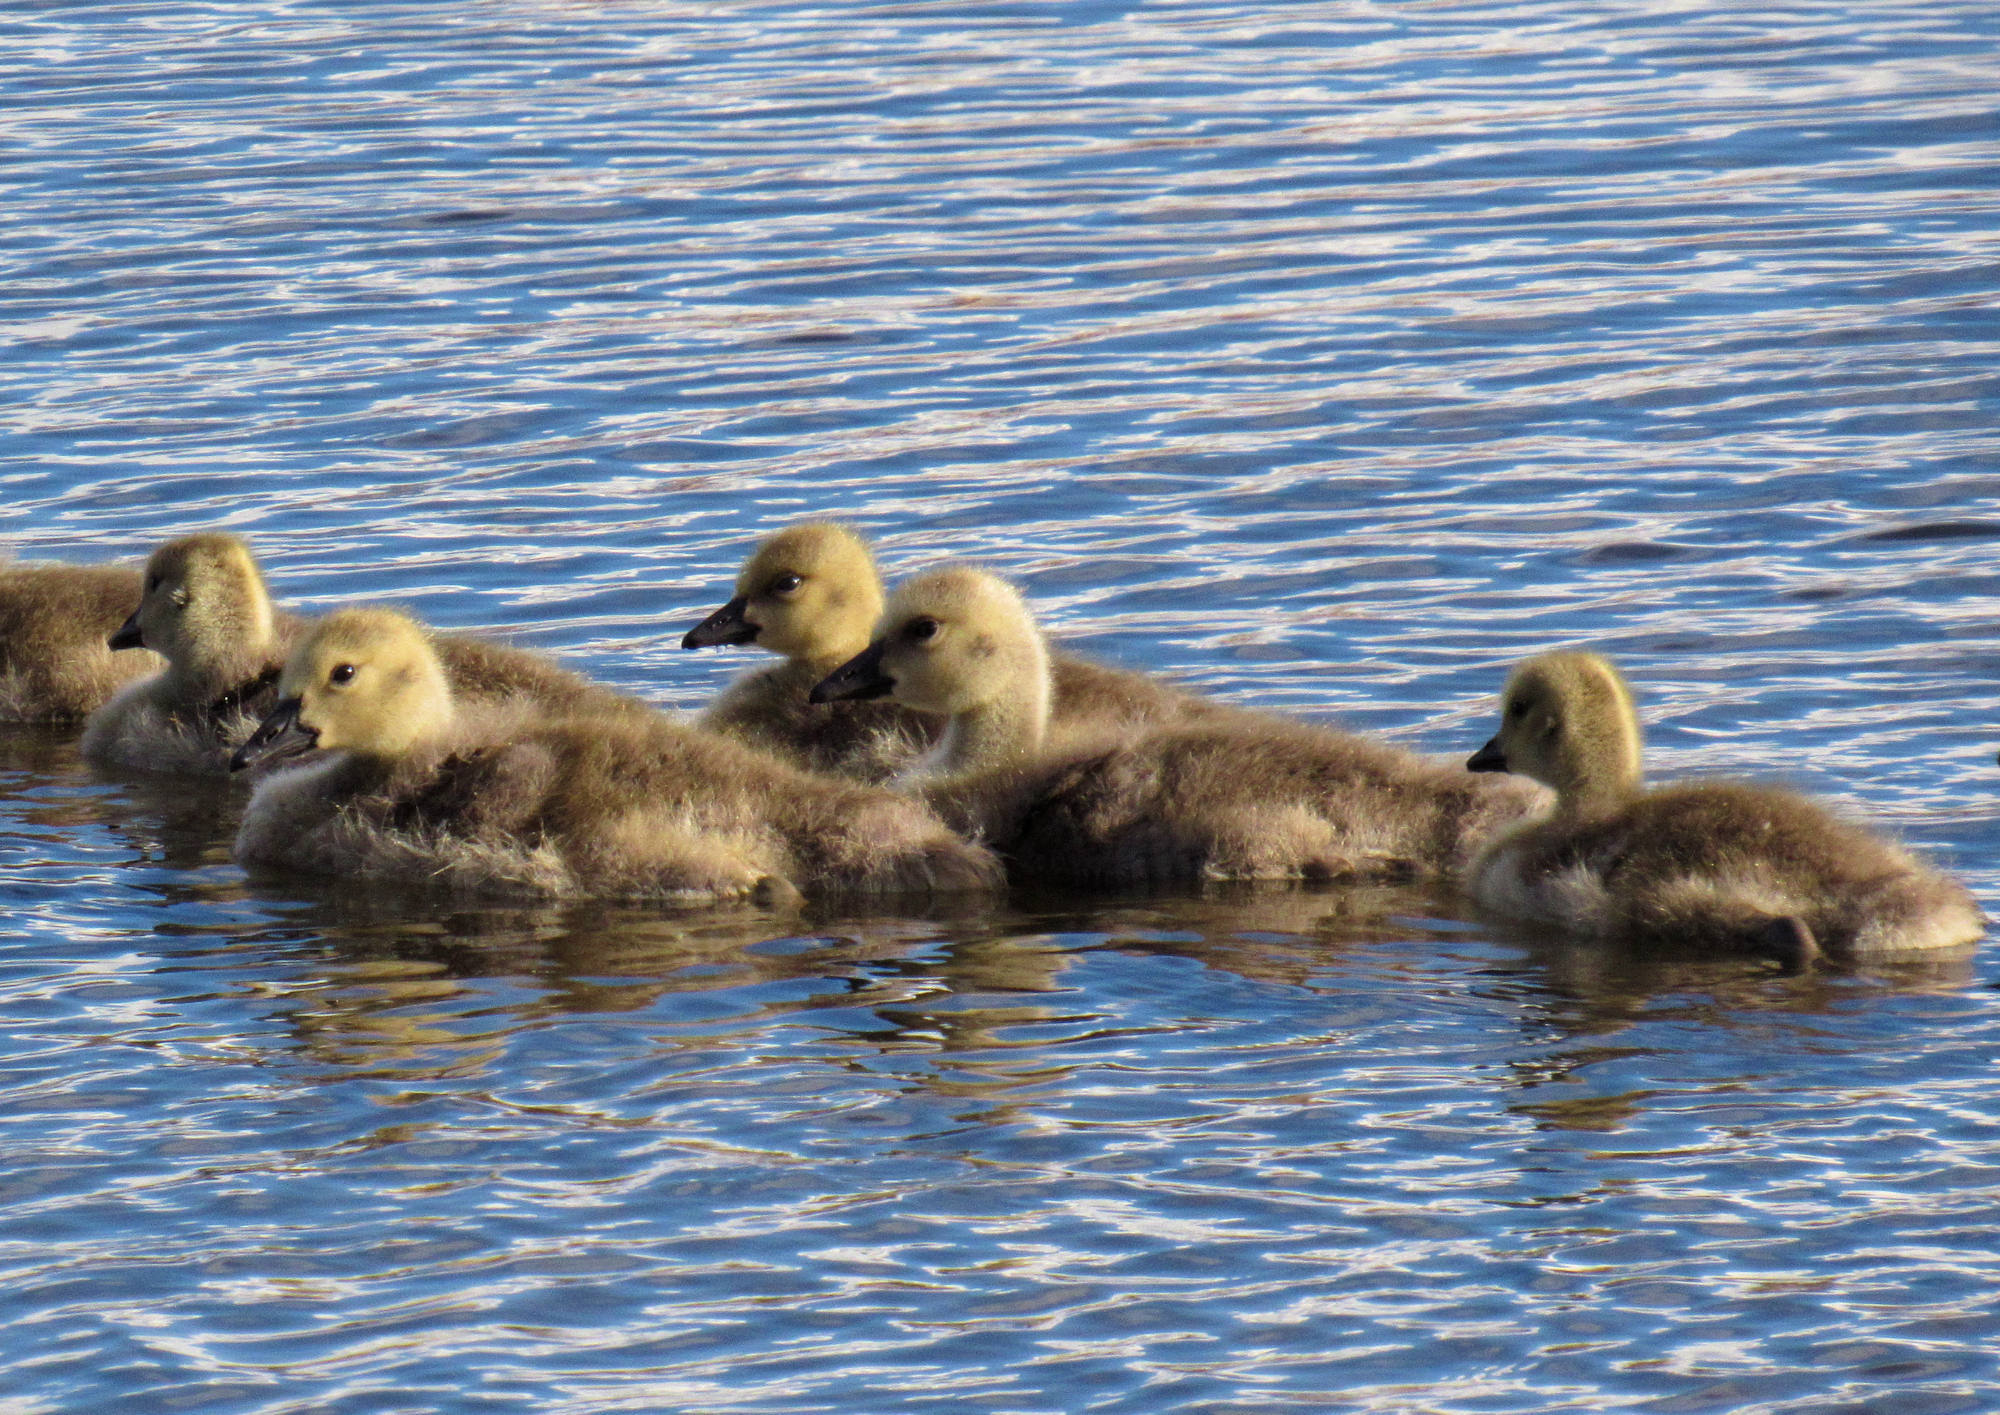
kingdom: Animalia
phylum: Chordata
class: Aves
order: Anseriformes
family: Anatidae
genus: Branta
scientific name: Branta canadensis
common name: Canada goose
